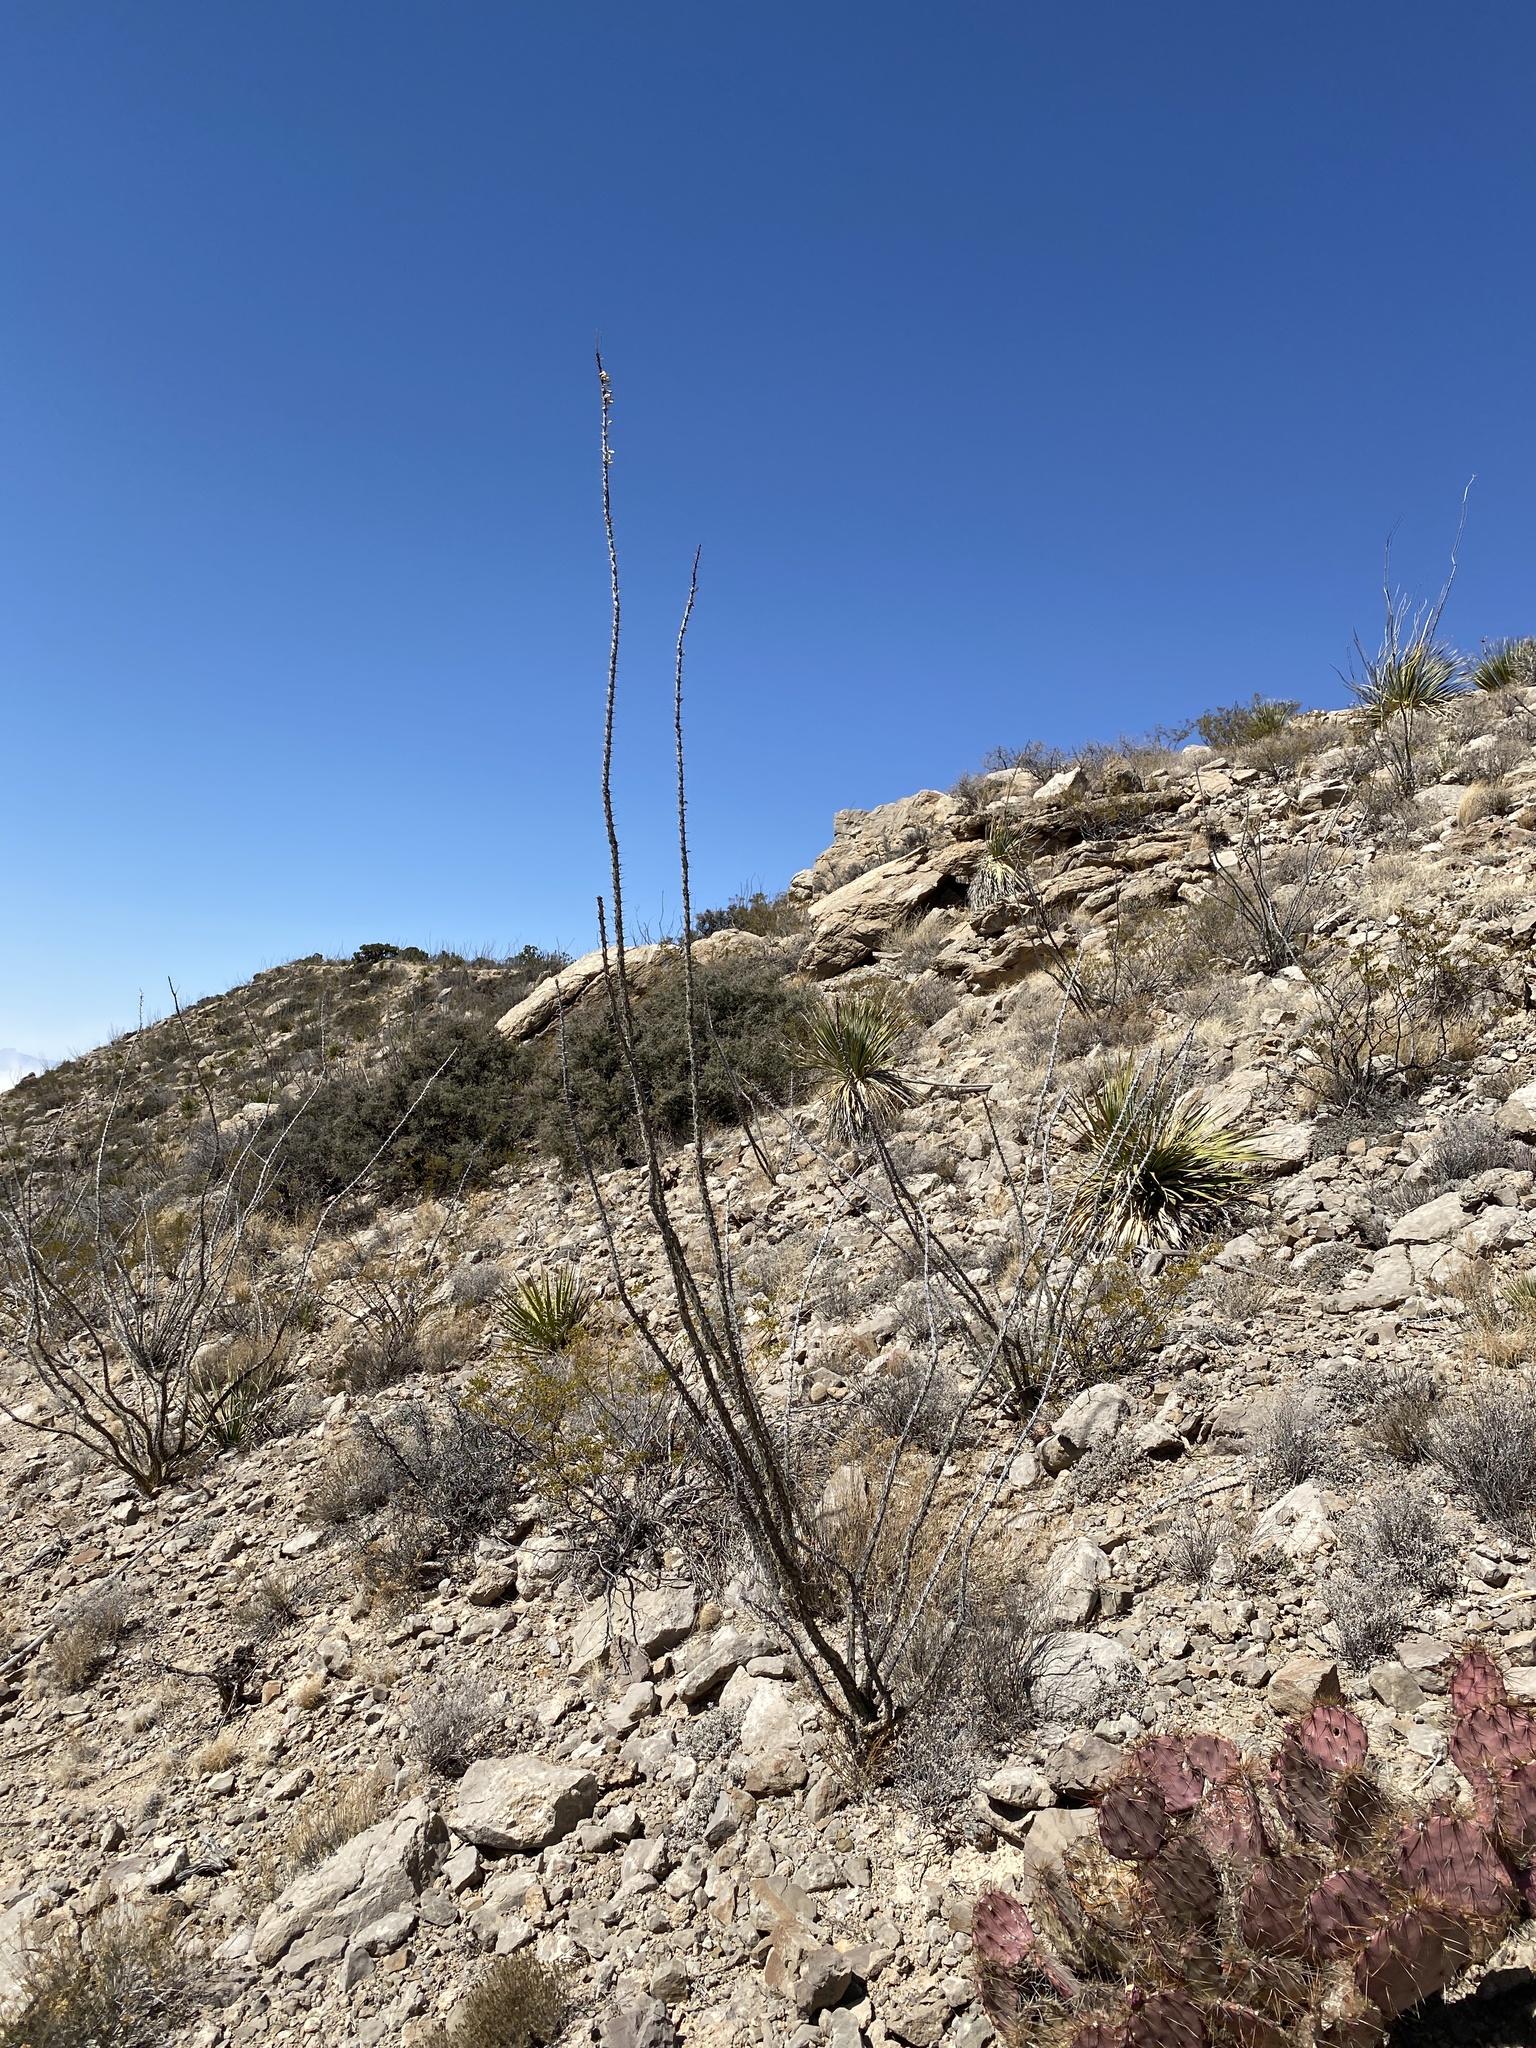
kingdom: Plantae
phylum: Tracheophyta
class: Magnoliopsida
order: Ericales
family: Fouquieriaceae
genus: Fouquieria
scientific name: Fouquieria splendens
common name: Vine-cactus
